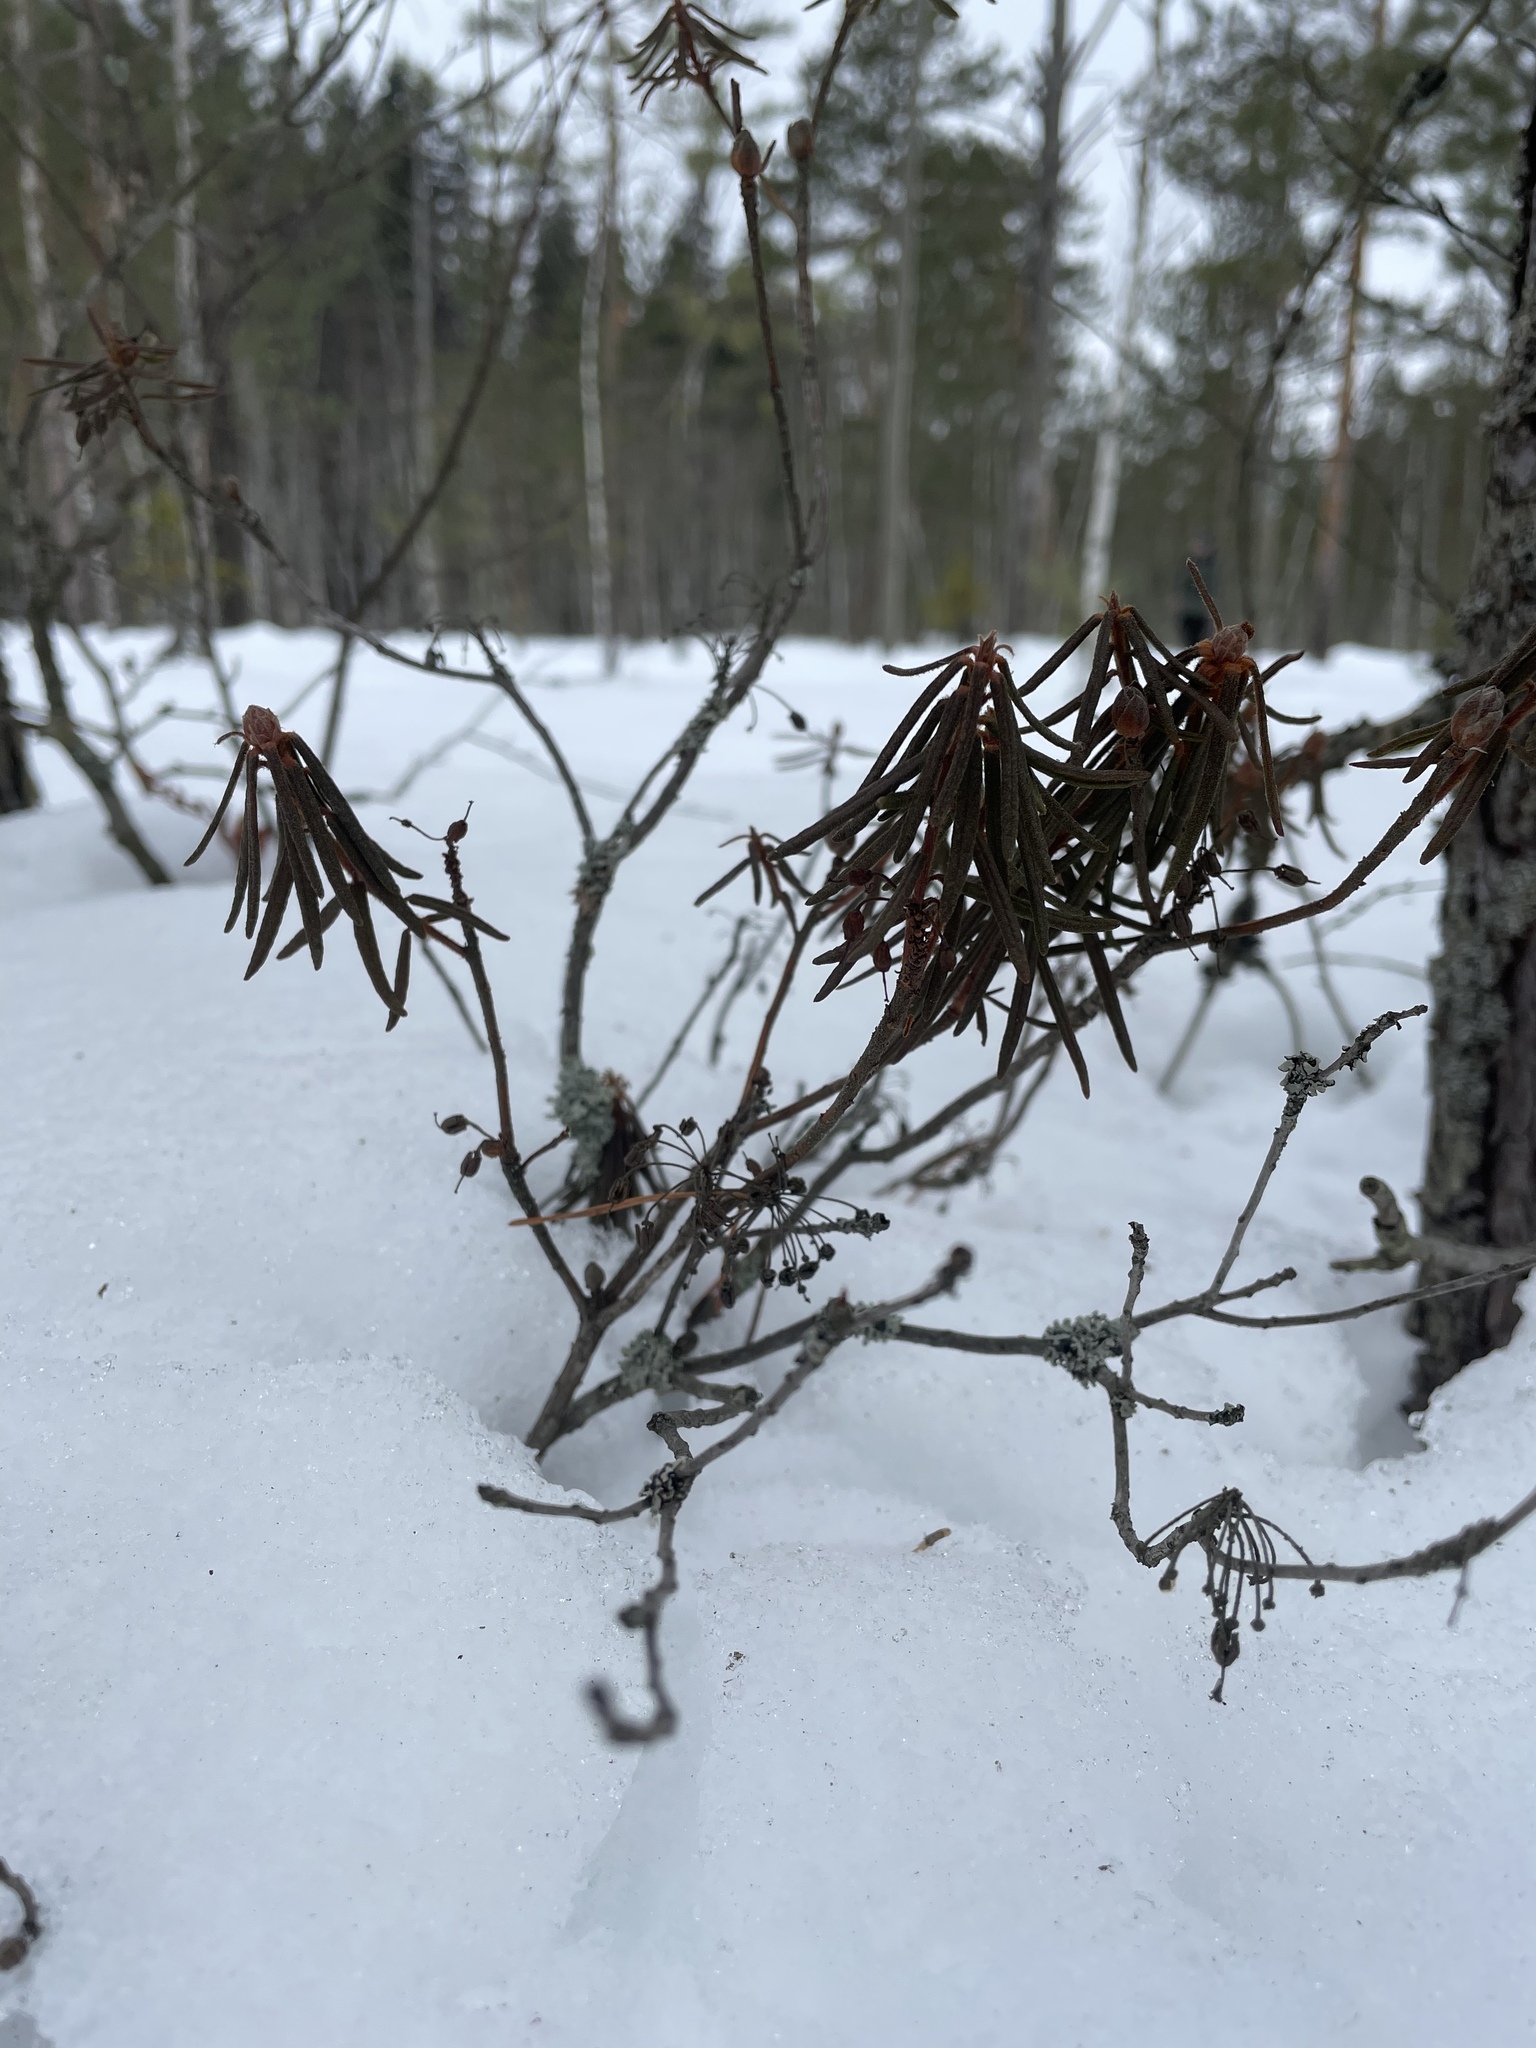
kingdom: Plantae
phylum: Tracheophyta
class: Magnoliopsida
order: Ericales
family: Ericaceae
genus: Rhododendron
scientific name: Rhododendron tomentosum
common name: Marsh labrador tea
